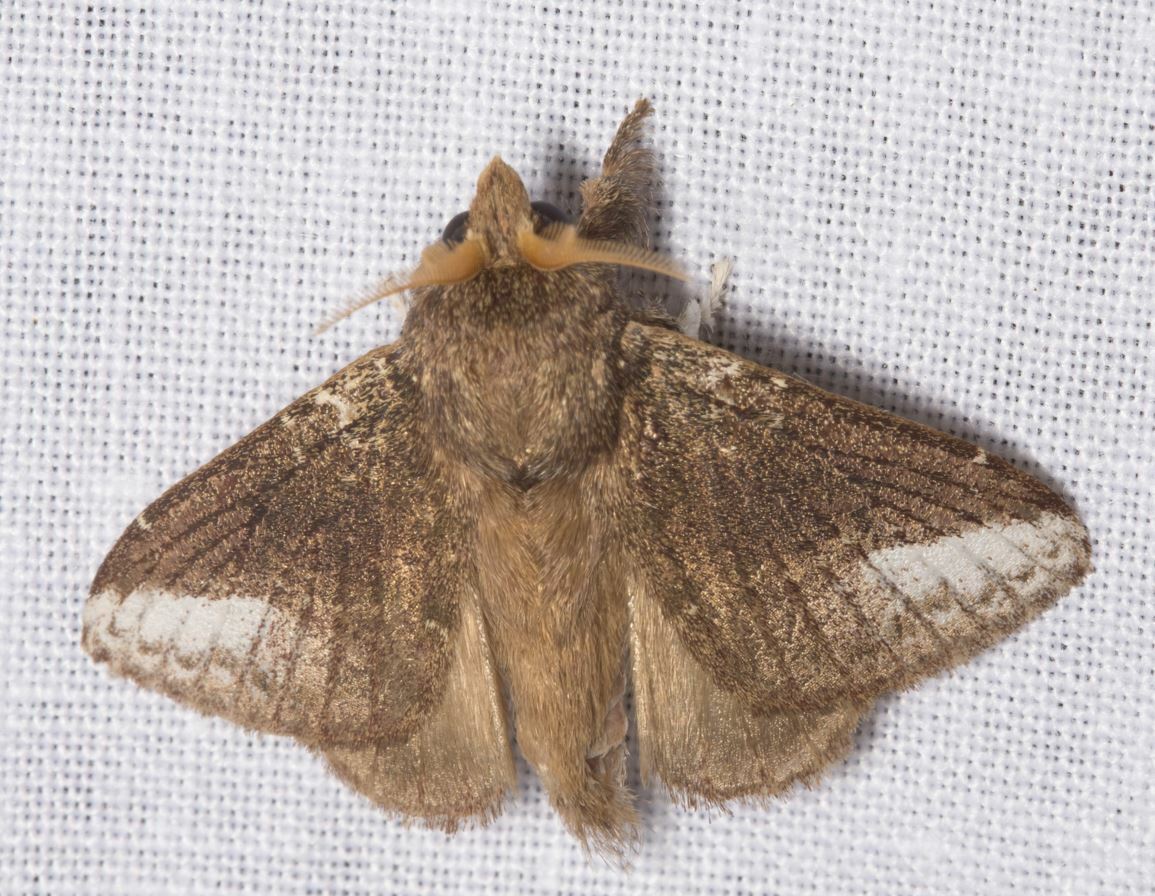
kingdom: Animalia
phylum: Arthropoda
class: Insecta
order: Lepidoptera
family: Lasiocampidae
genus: Euglyphis
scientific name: Euglyphis moisa
